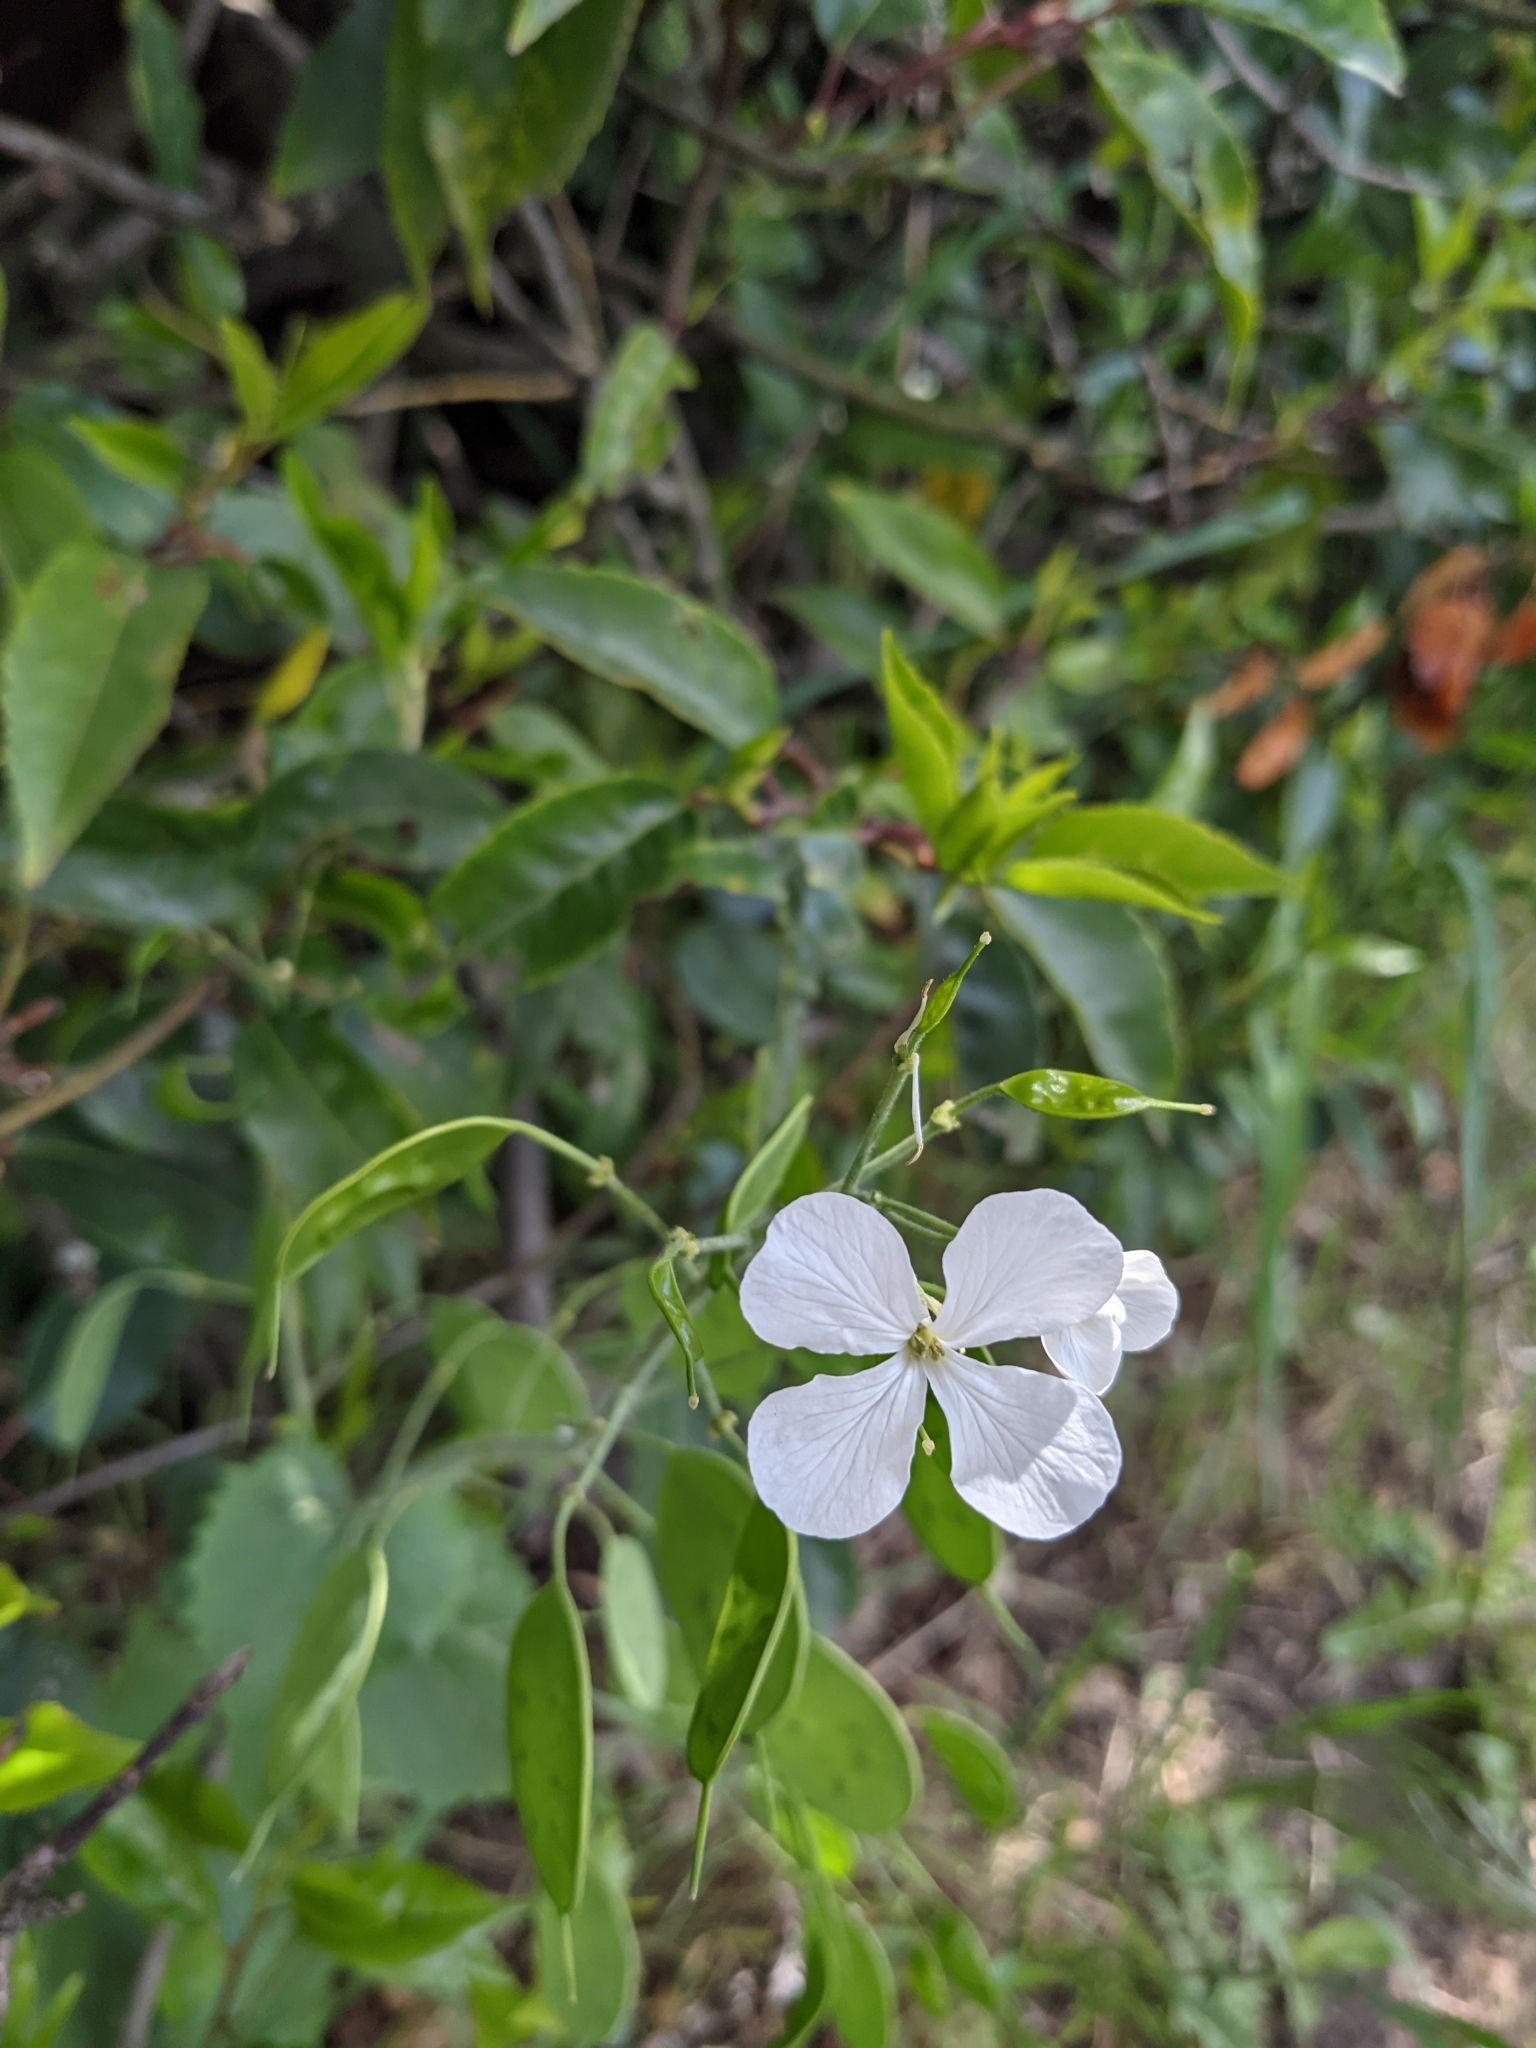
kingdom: Plantae
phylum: Tracheophyta
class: Magnoliopsida
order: Brassicales
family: Brassicaceae
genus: Lunaria
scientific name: Lunaria annua
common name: Honesty
